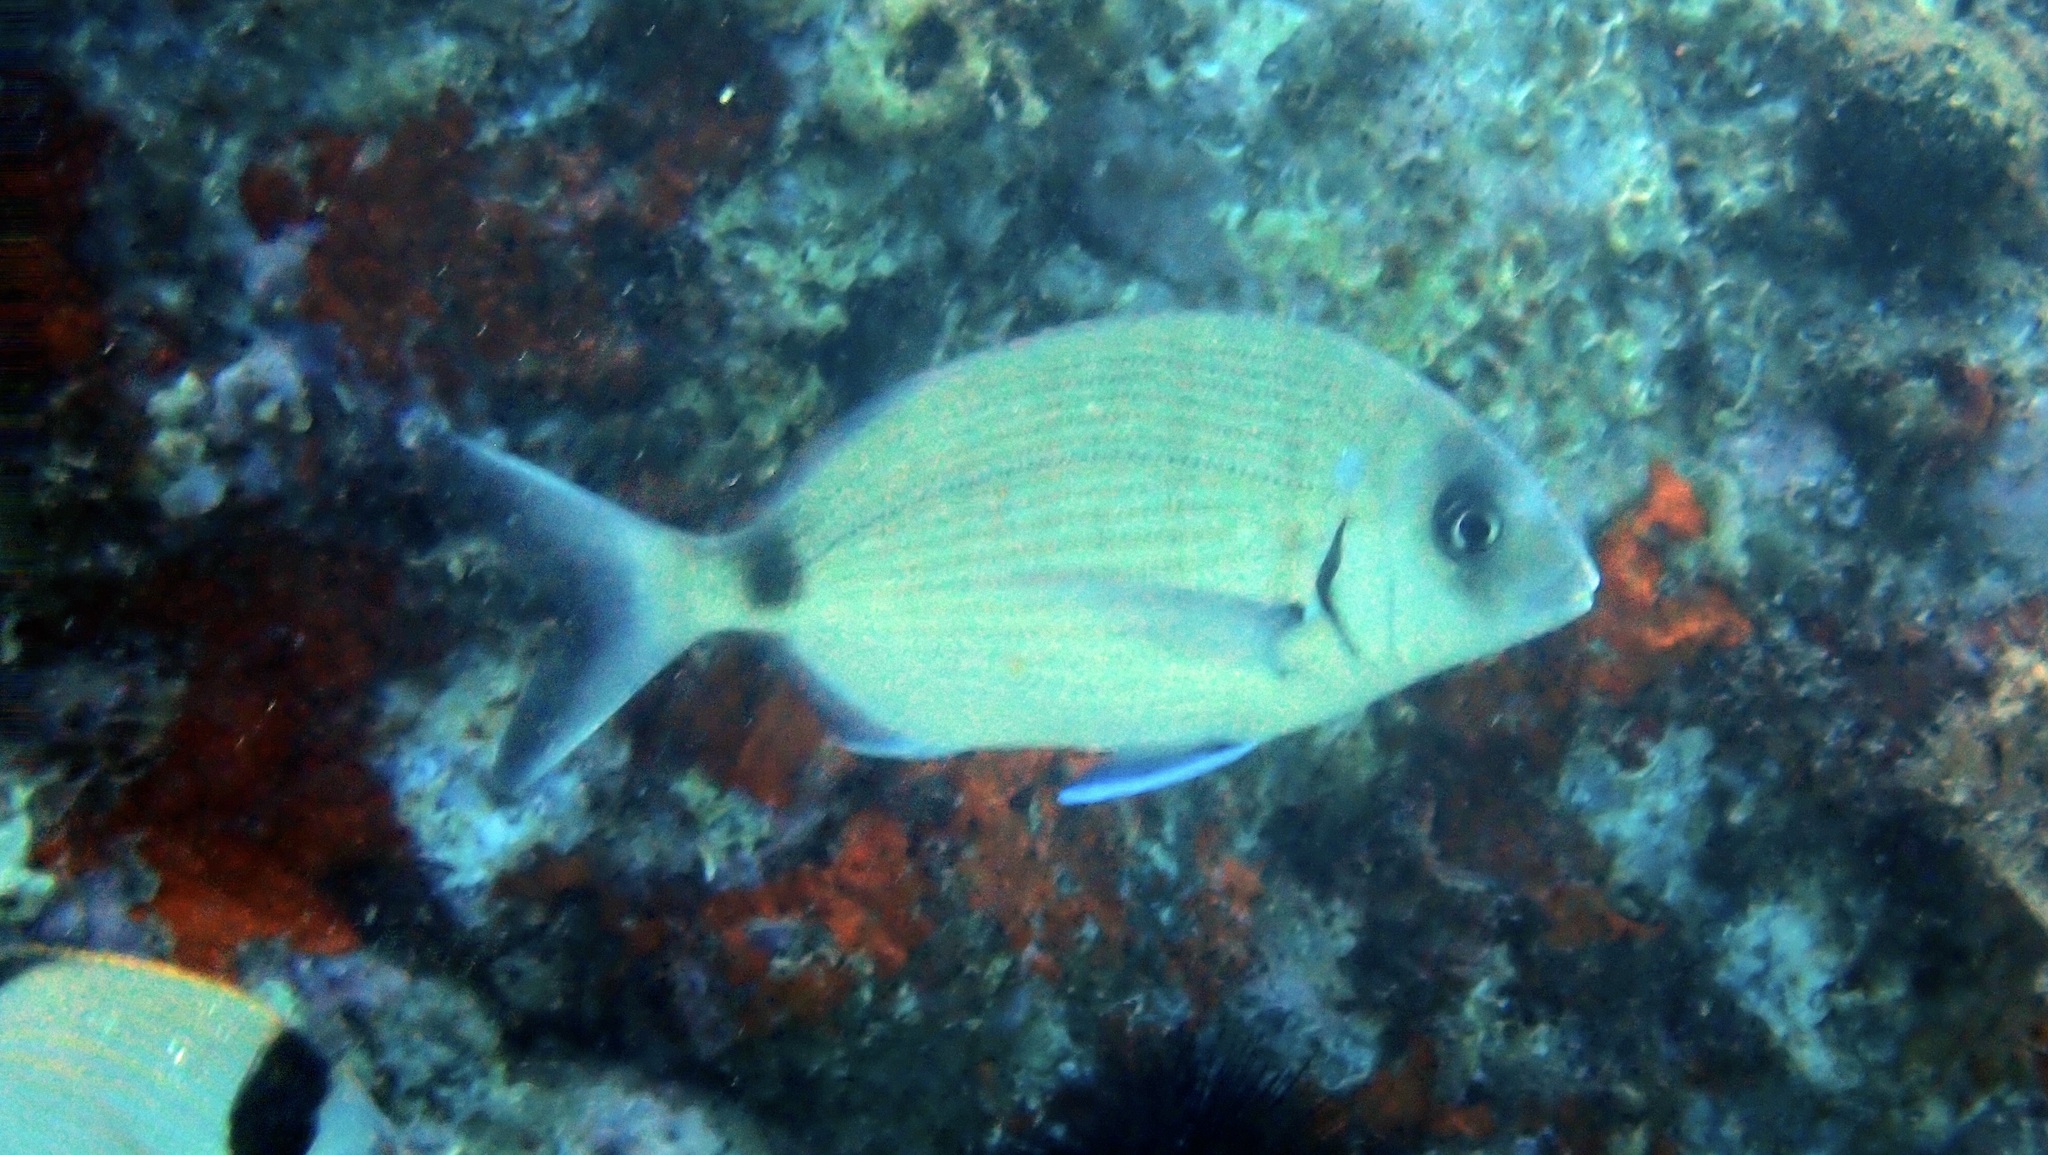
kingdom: Animalia
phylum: Chordata
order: Perciformes
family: Sparidae
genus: Diplodus
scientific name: Diplodus sargus
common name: White seabream
